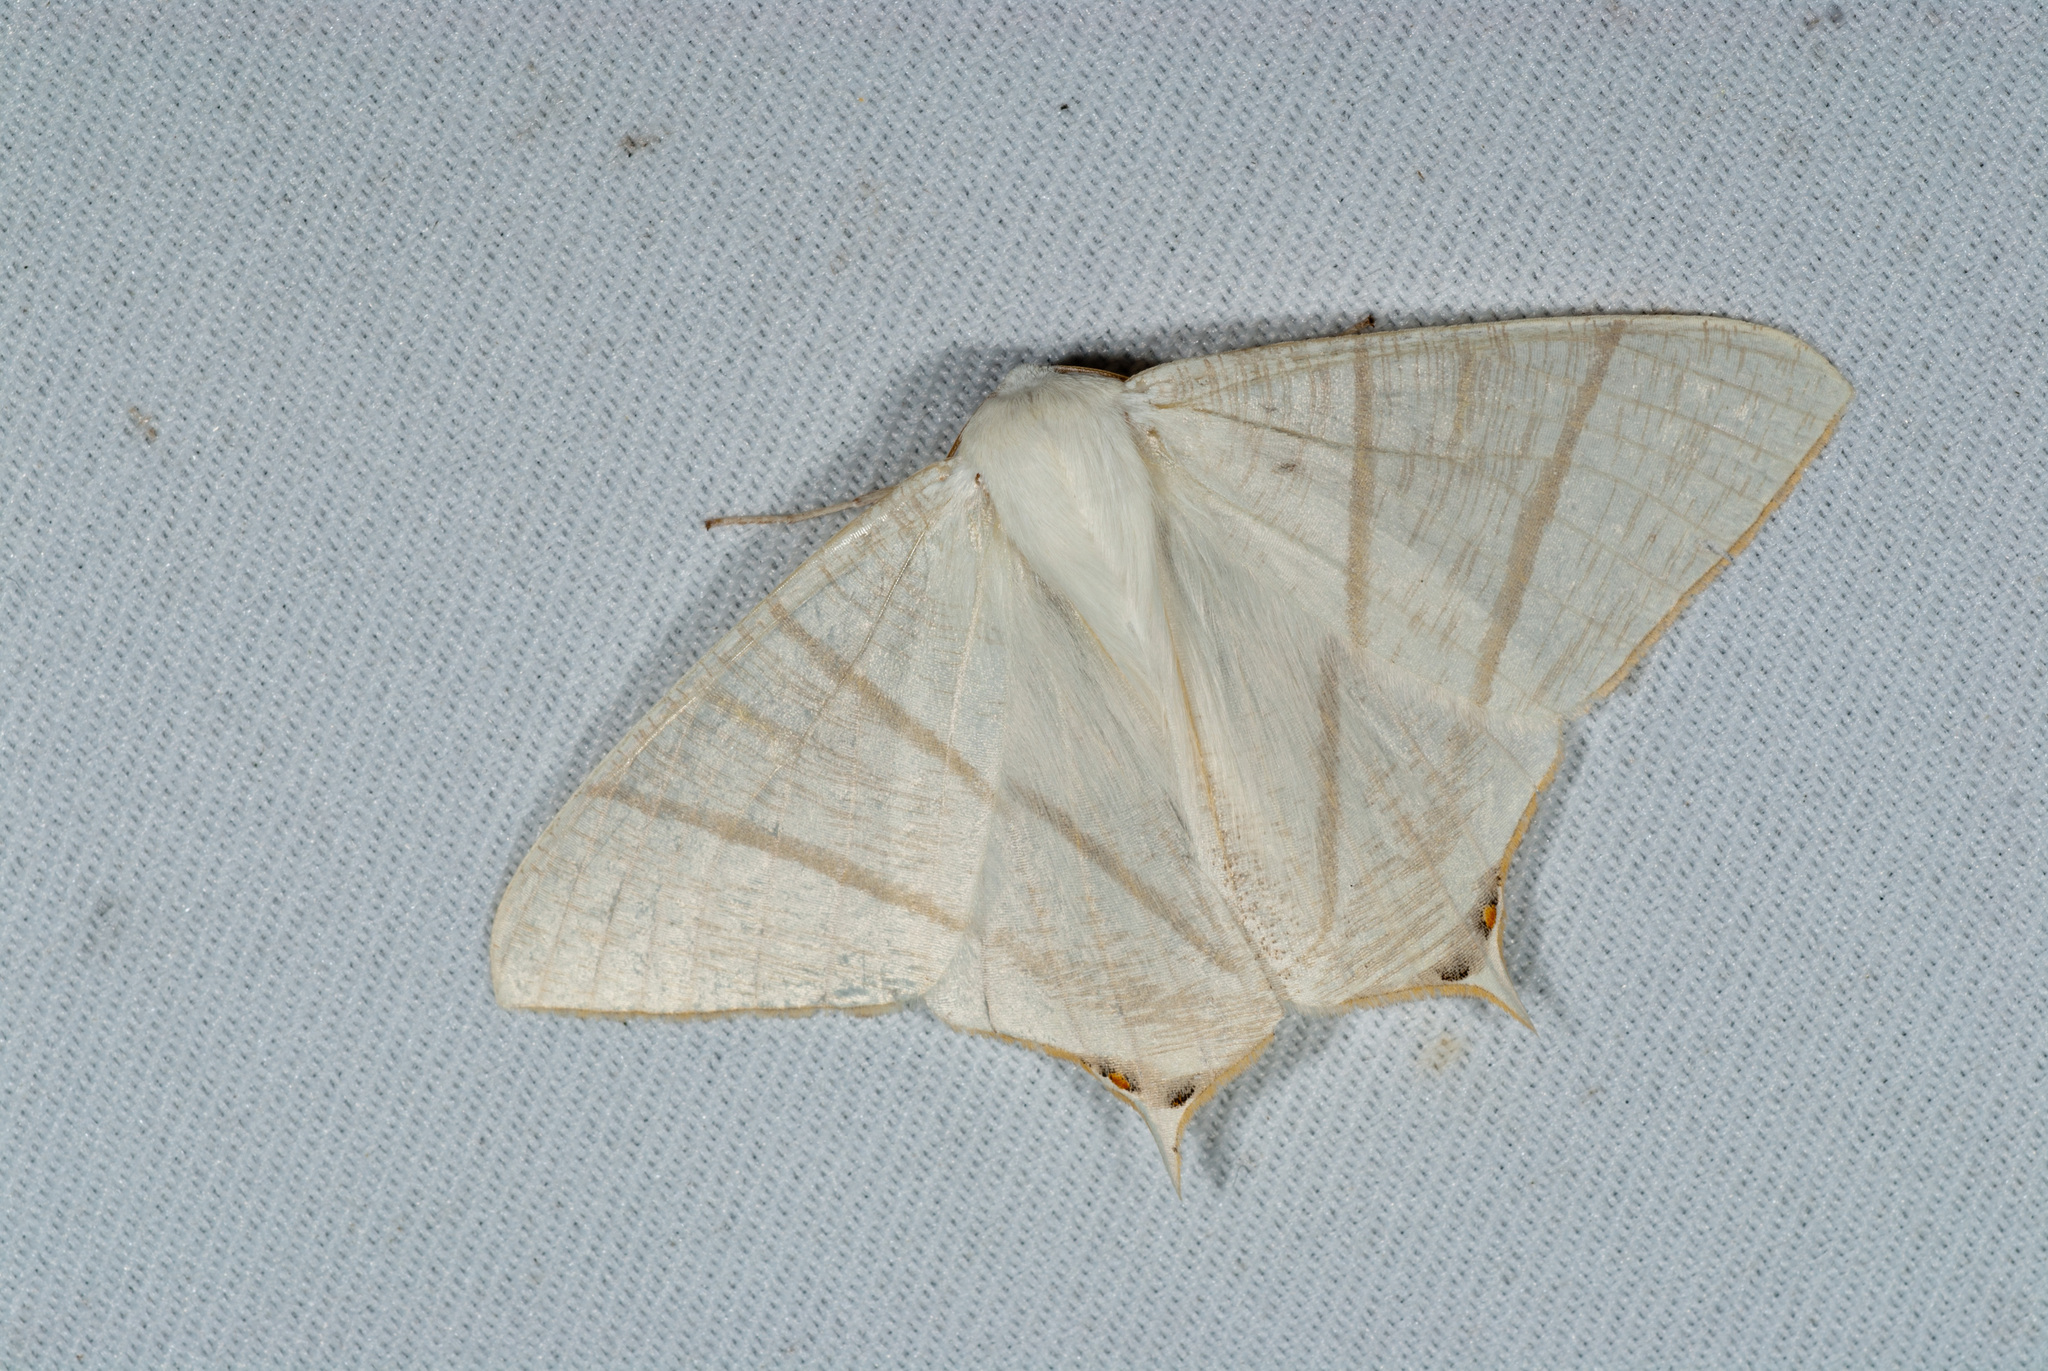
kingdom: Animalia
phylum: Arthropoda
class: Insecta
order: Lepidoptera
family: Geometridae
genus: Ourapteryx
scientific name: Ourapteryx pallidula
